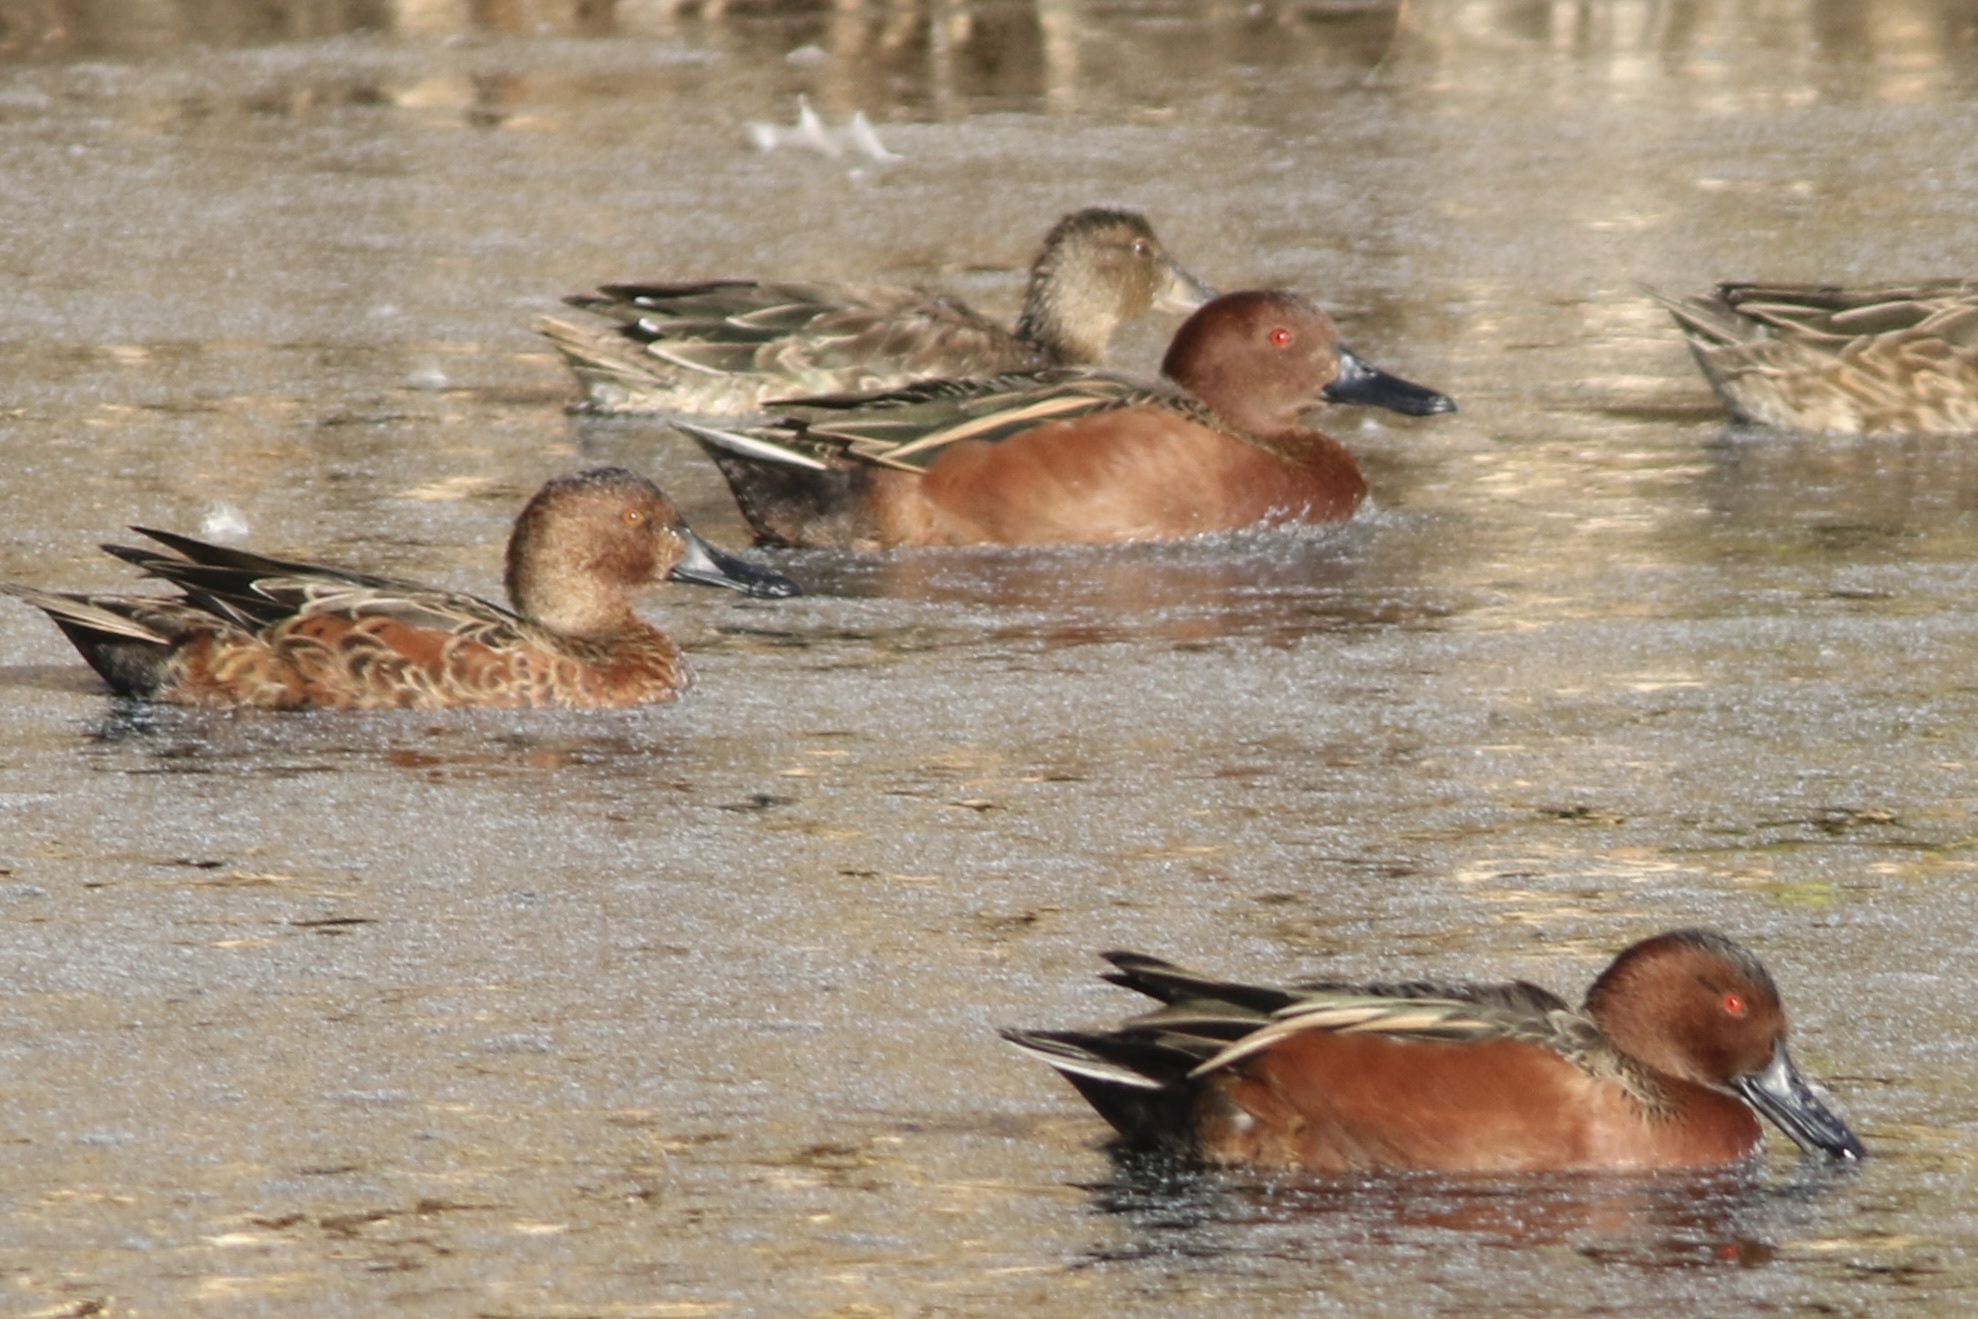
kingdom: Animalia
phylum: Chordata
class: Aves
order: Anseriformes
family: Anatidae
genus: Spatula
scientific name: Spatula cyanoptera
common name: Cinnamon teal
